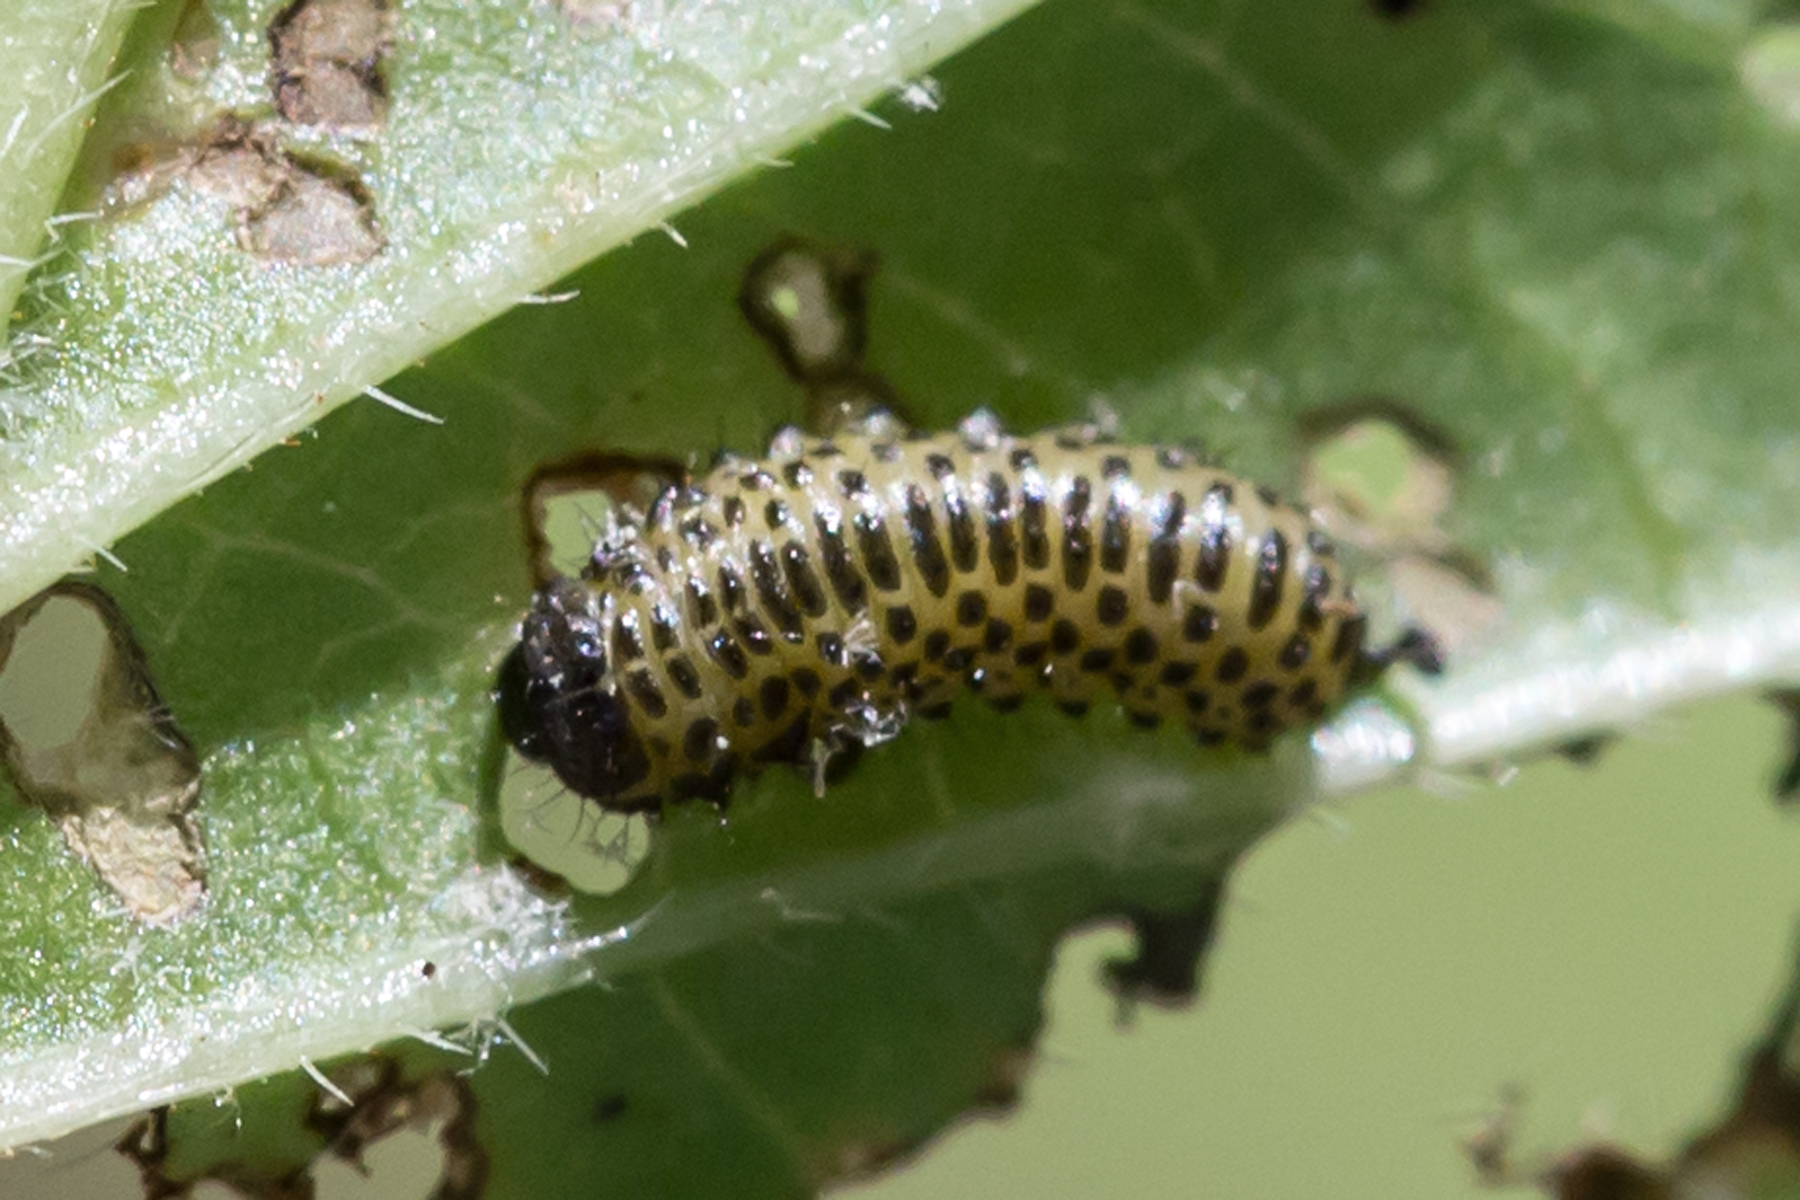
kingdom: Animalia
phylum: Arthropoda
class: Insecta
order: Coleoptera
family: Chrysomelidae
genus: Pyrrhalta
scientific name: Pyrrhalta viburni
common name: Guelder-rose leaf beetle
